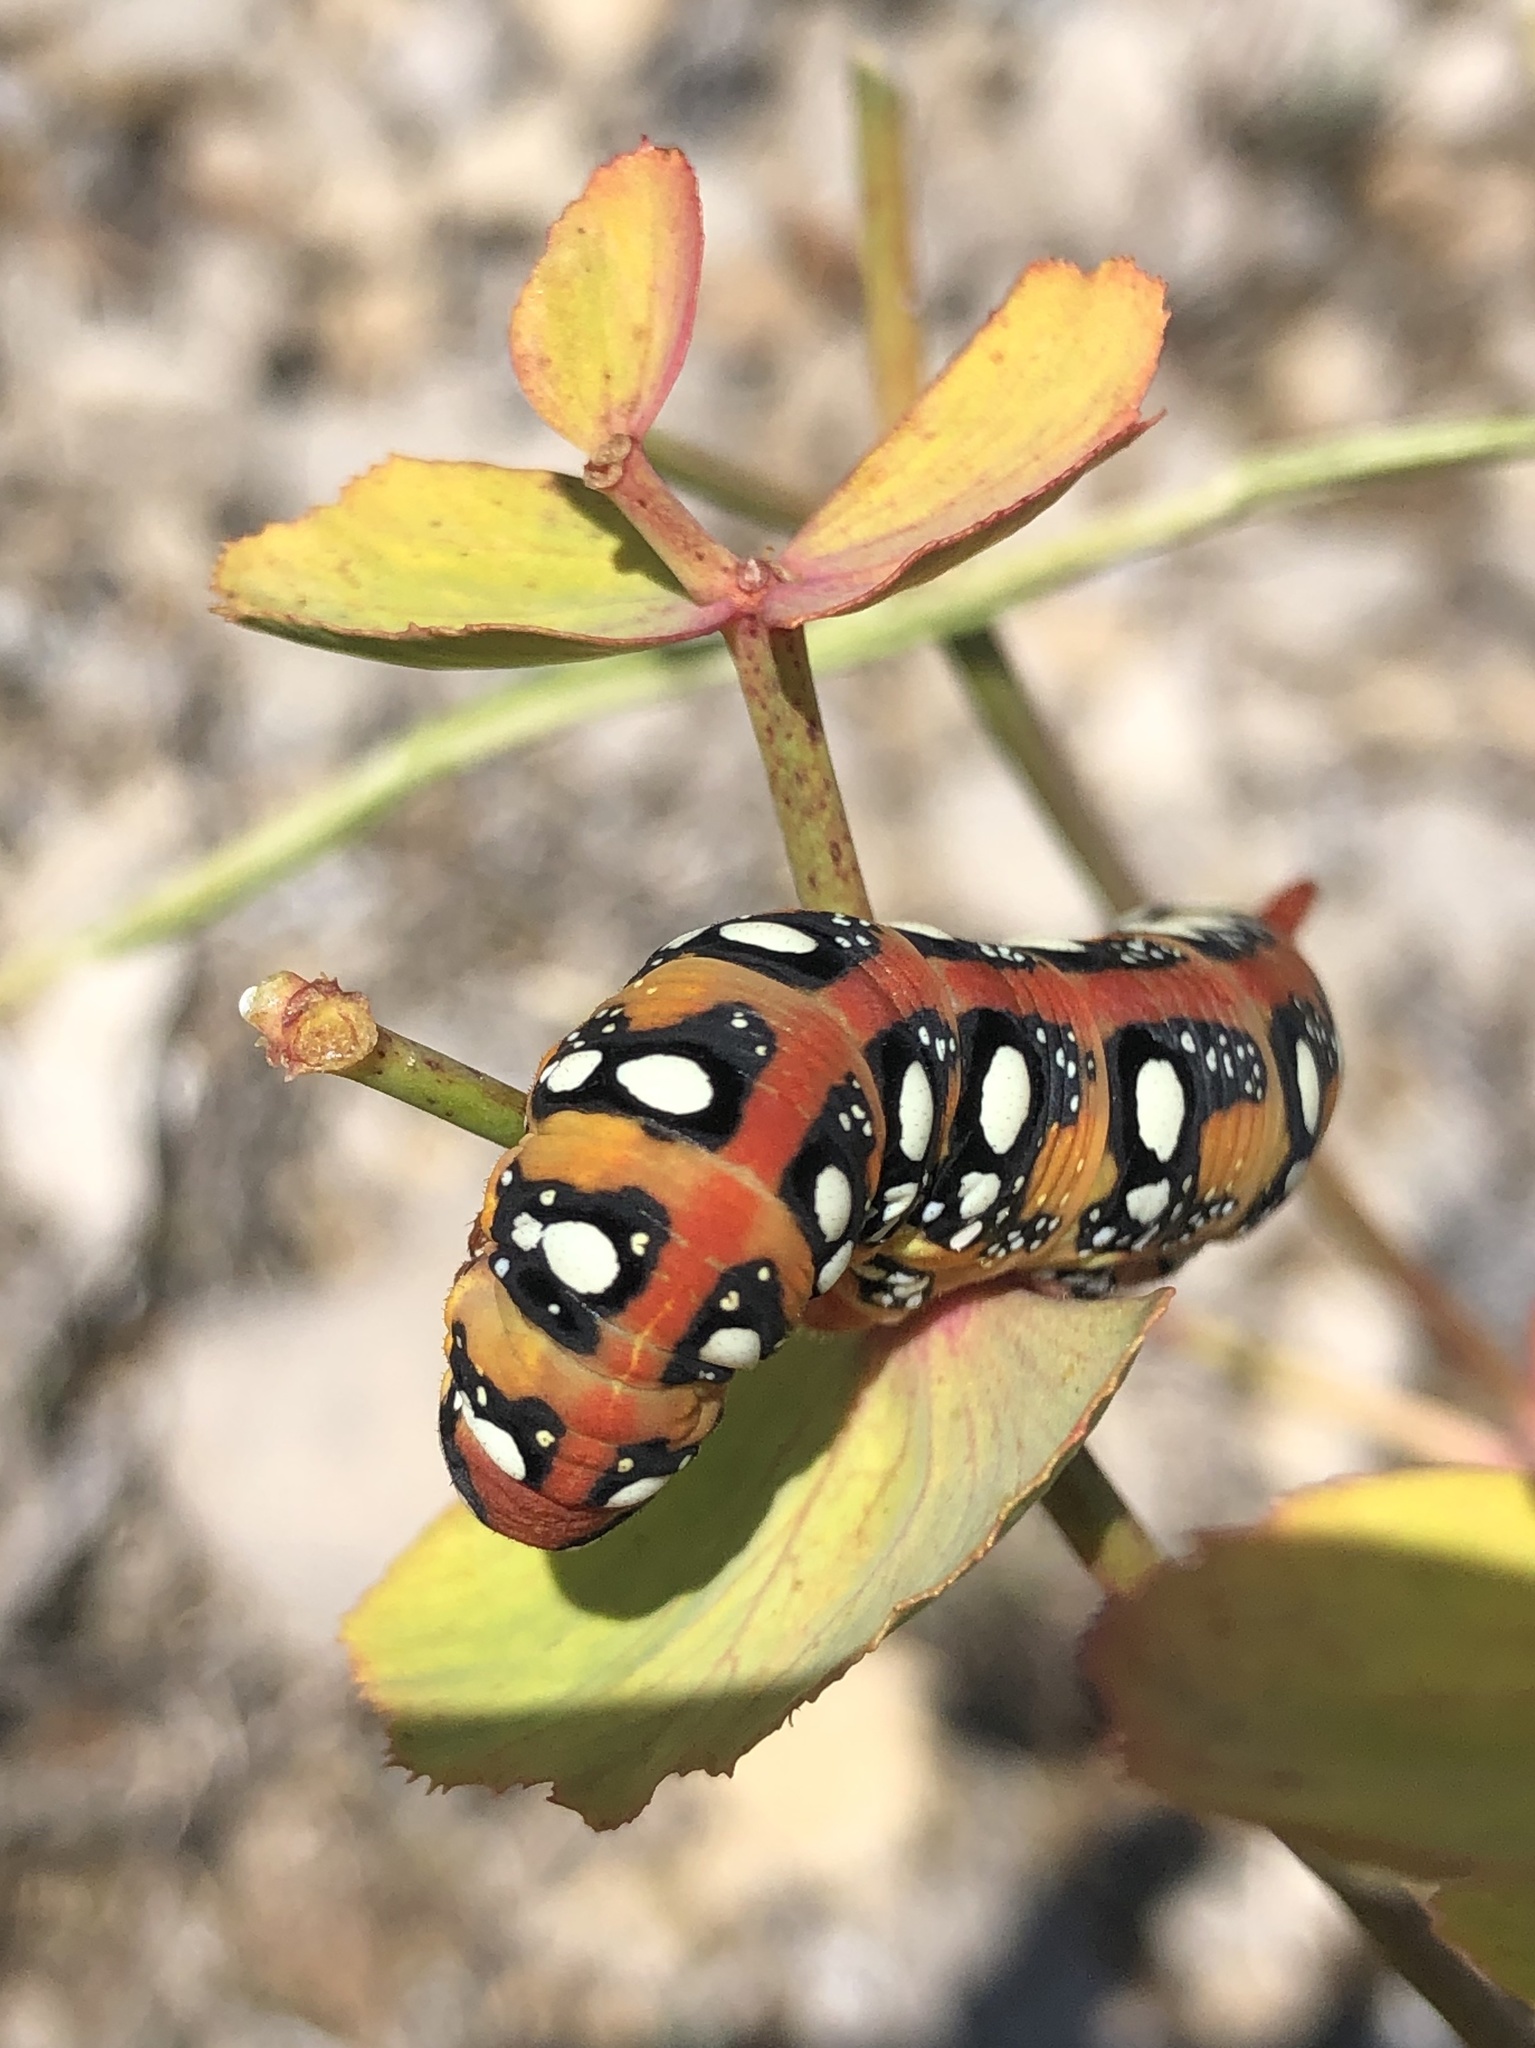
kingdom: Animalia
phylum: Arthropoda
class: Insecta
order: Lepidoptera
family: Sphingidae
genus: Hyles
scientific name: Hyles euphorbiae
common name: Spurge hawk-moth
